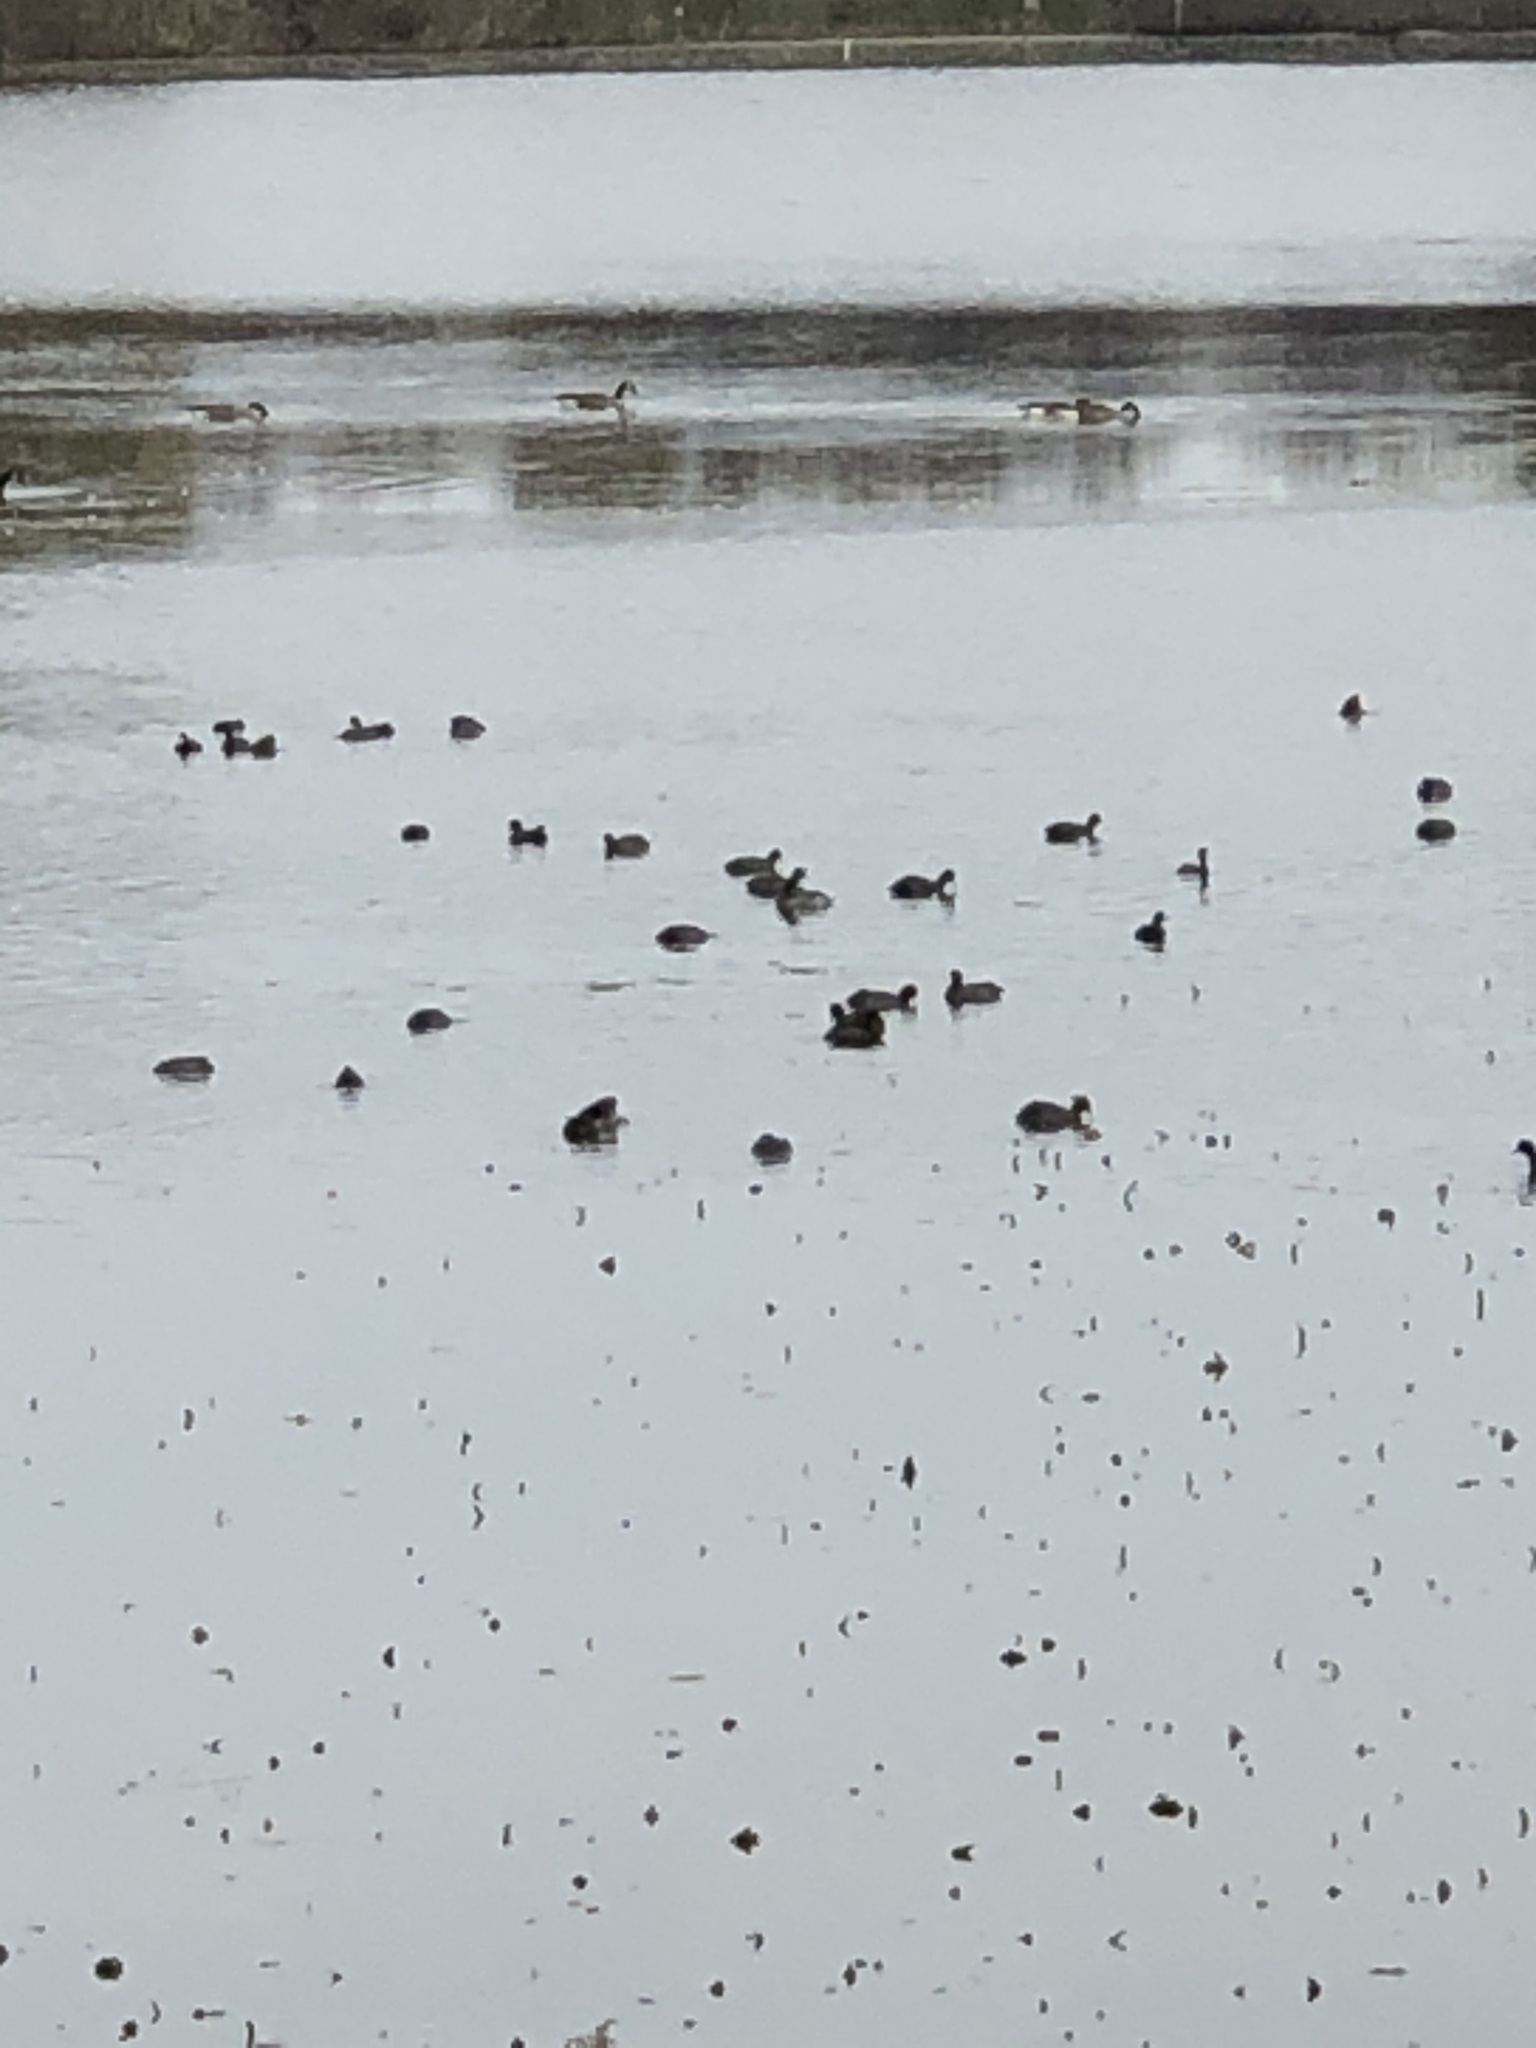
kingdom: Animalia
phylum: Chordata
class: Aves
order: Gruiformes
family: Rallidae
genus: Fulica
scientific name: Fulica americana
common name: American coot
